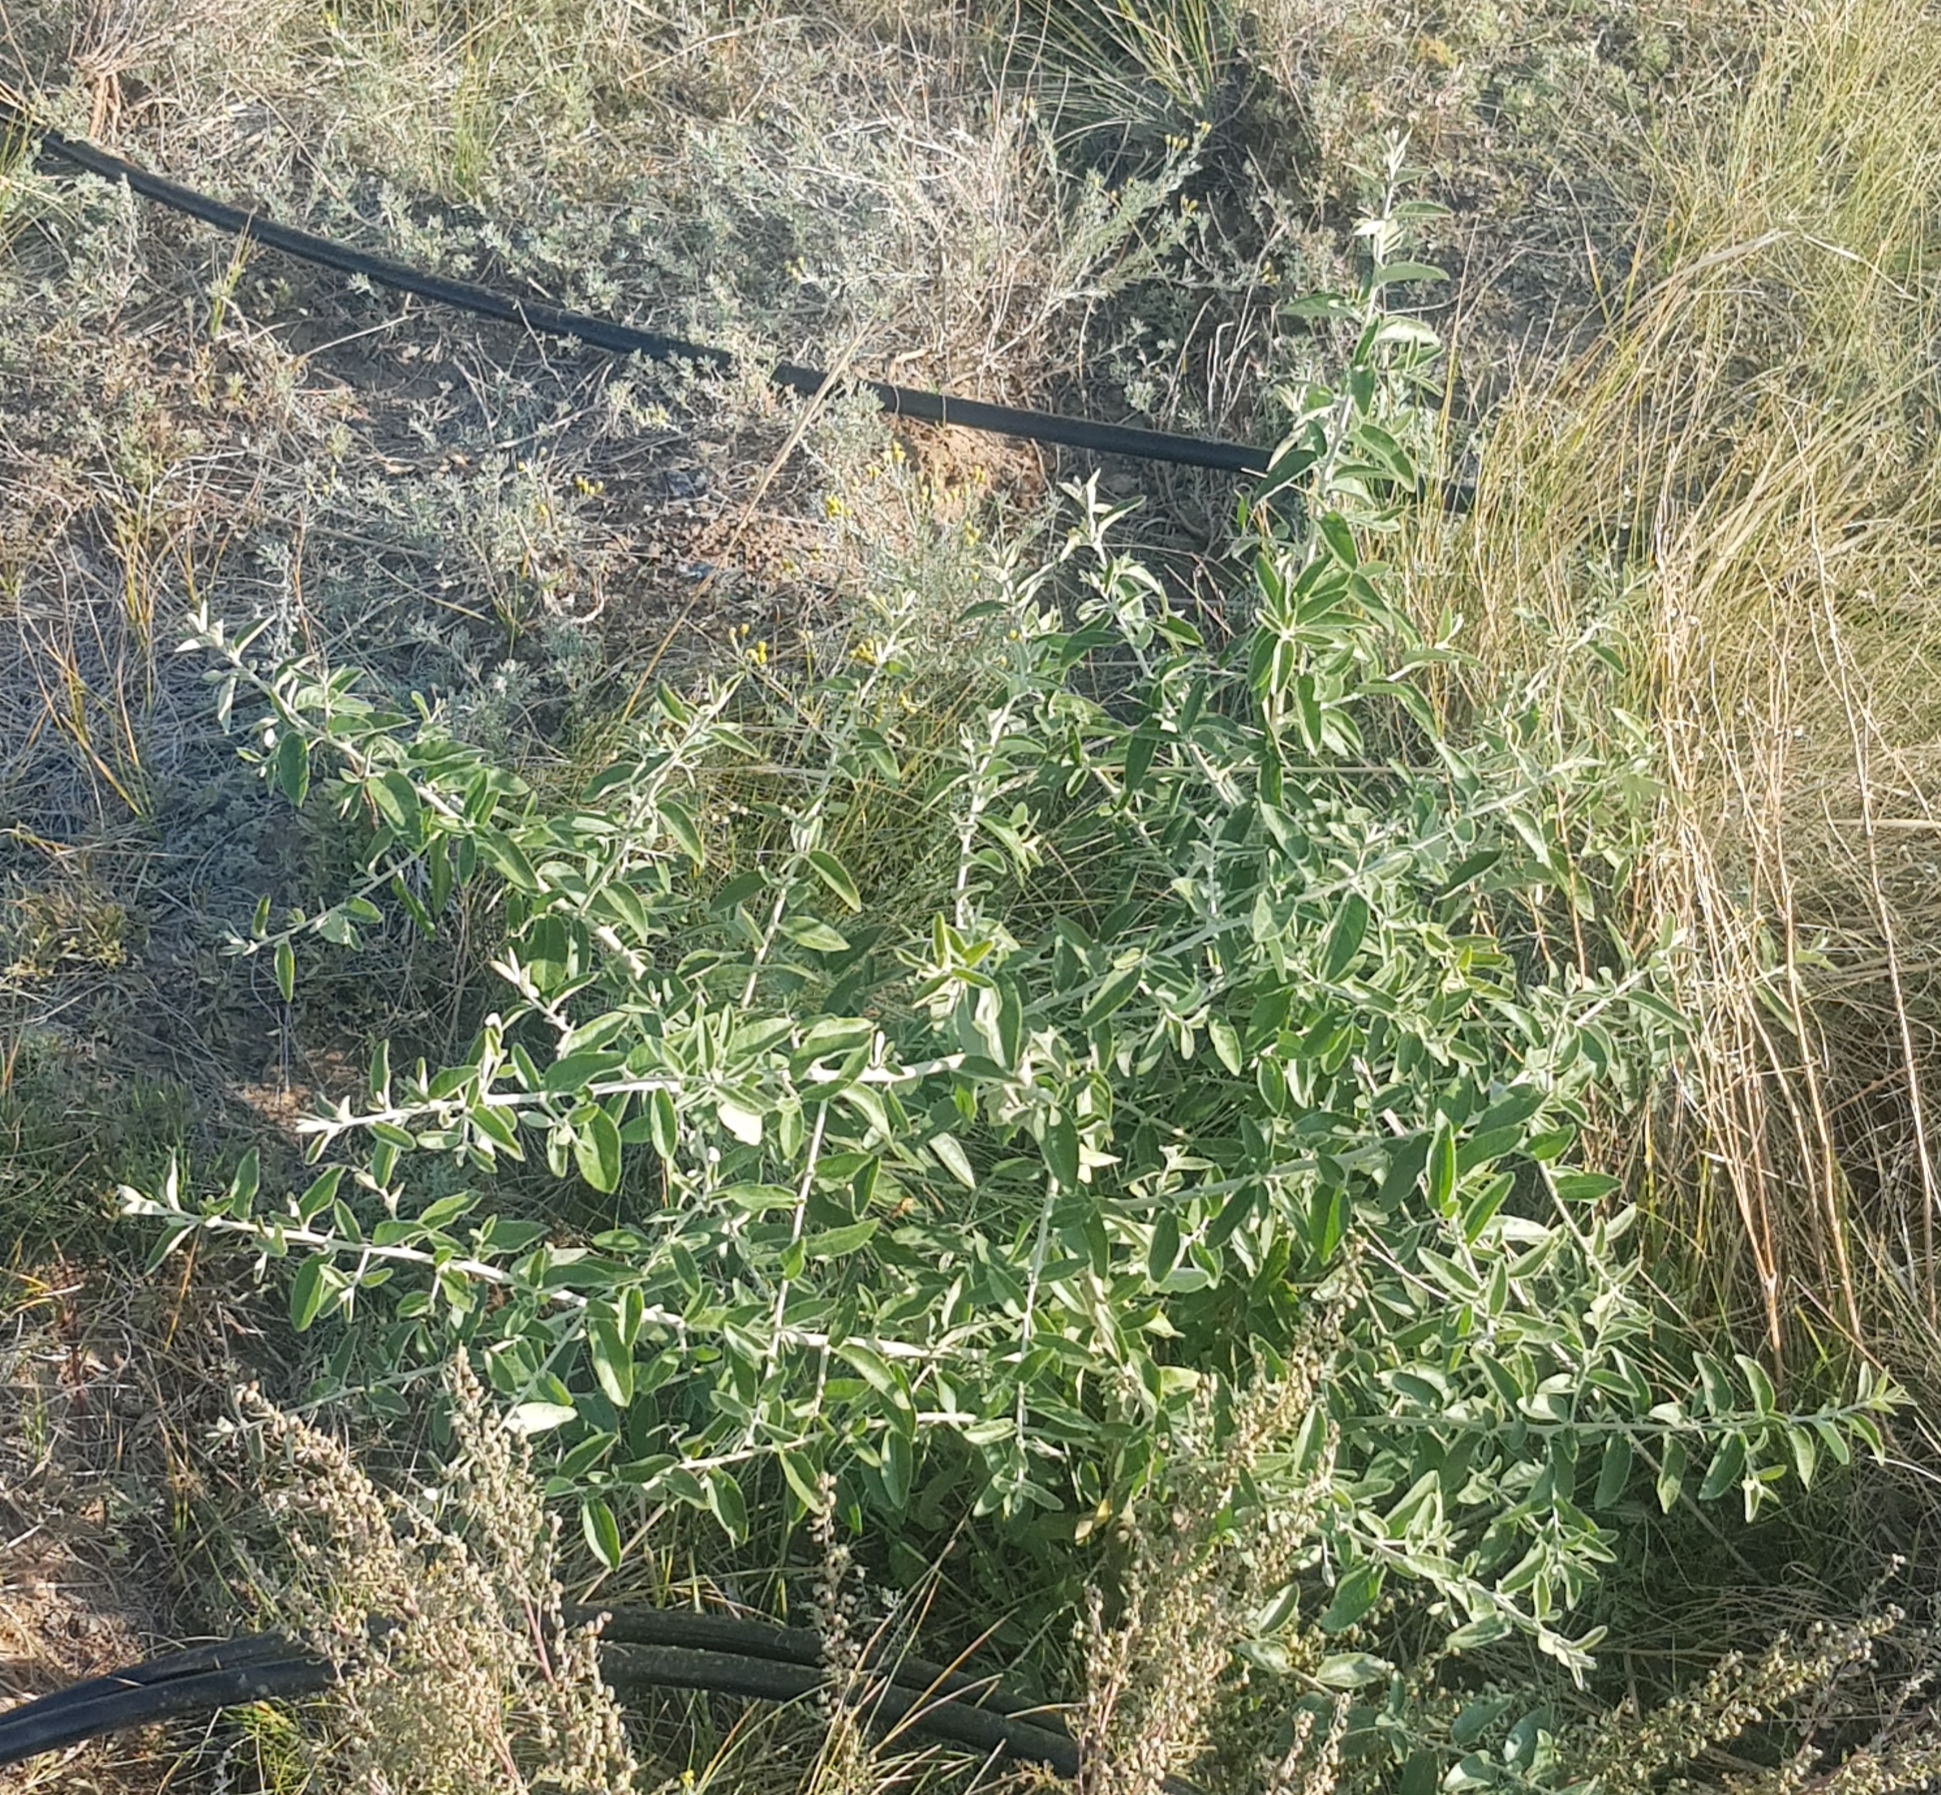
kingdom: Plantae
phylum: Tracheophyta
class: Magnoliopsida
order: Rosales
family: Elaeagnaceae
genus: Elaeagnus
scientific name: Elaeagnus angustifolia
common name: Russian olive
